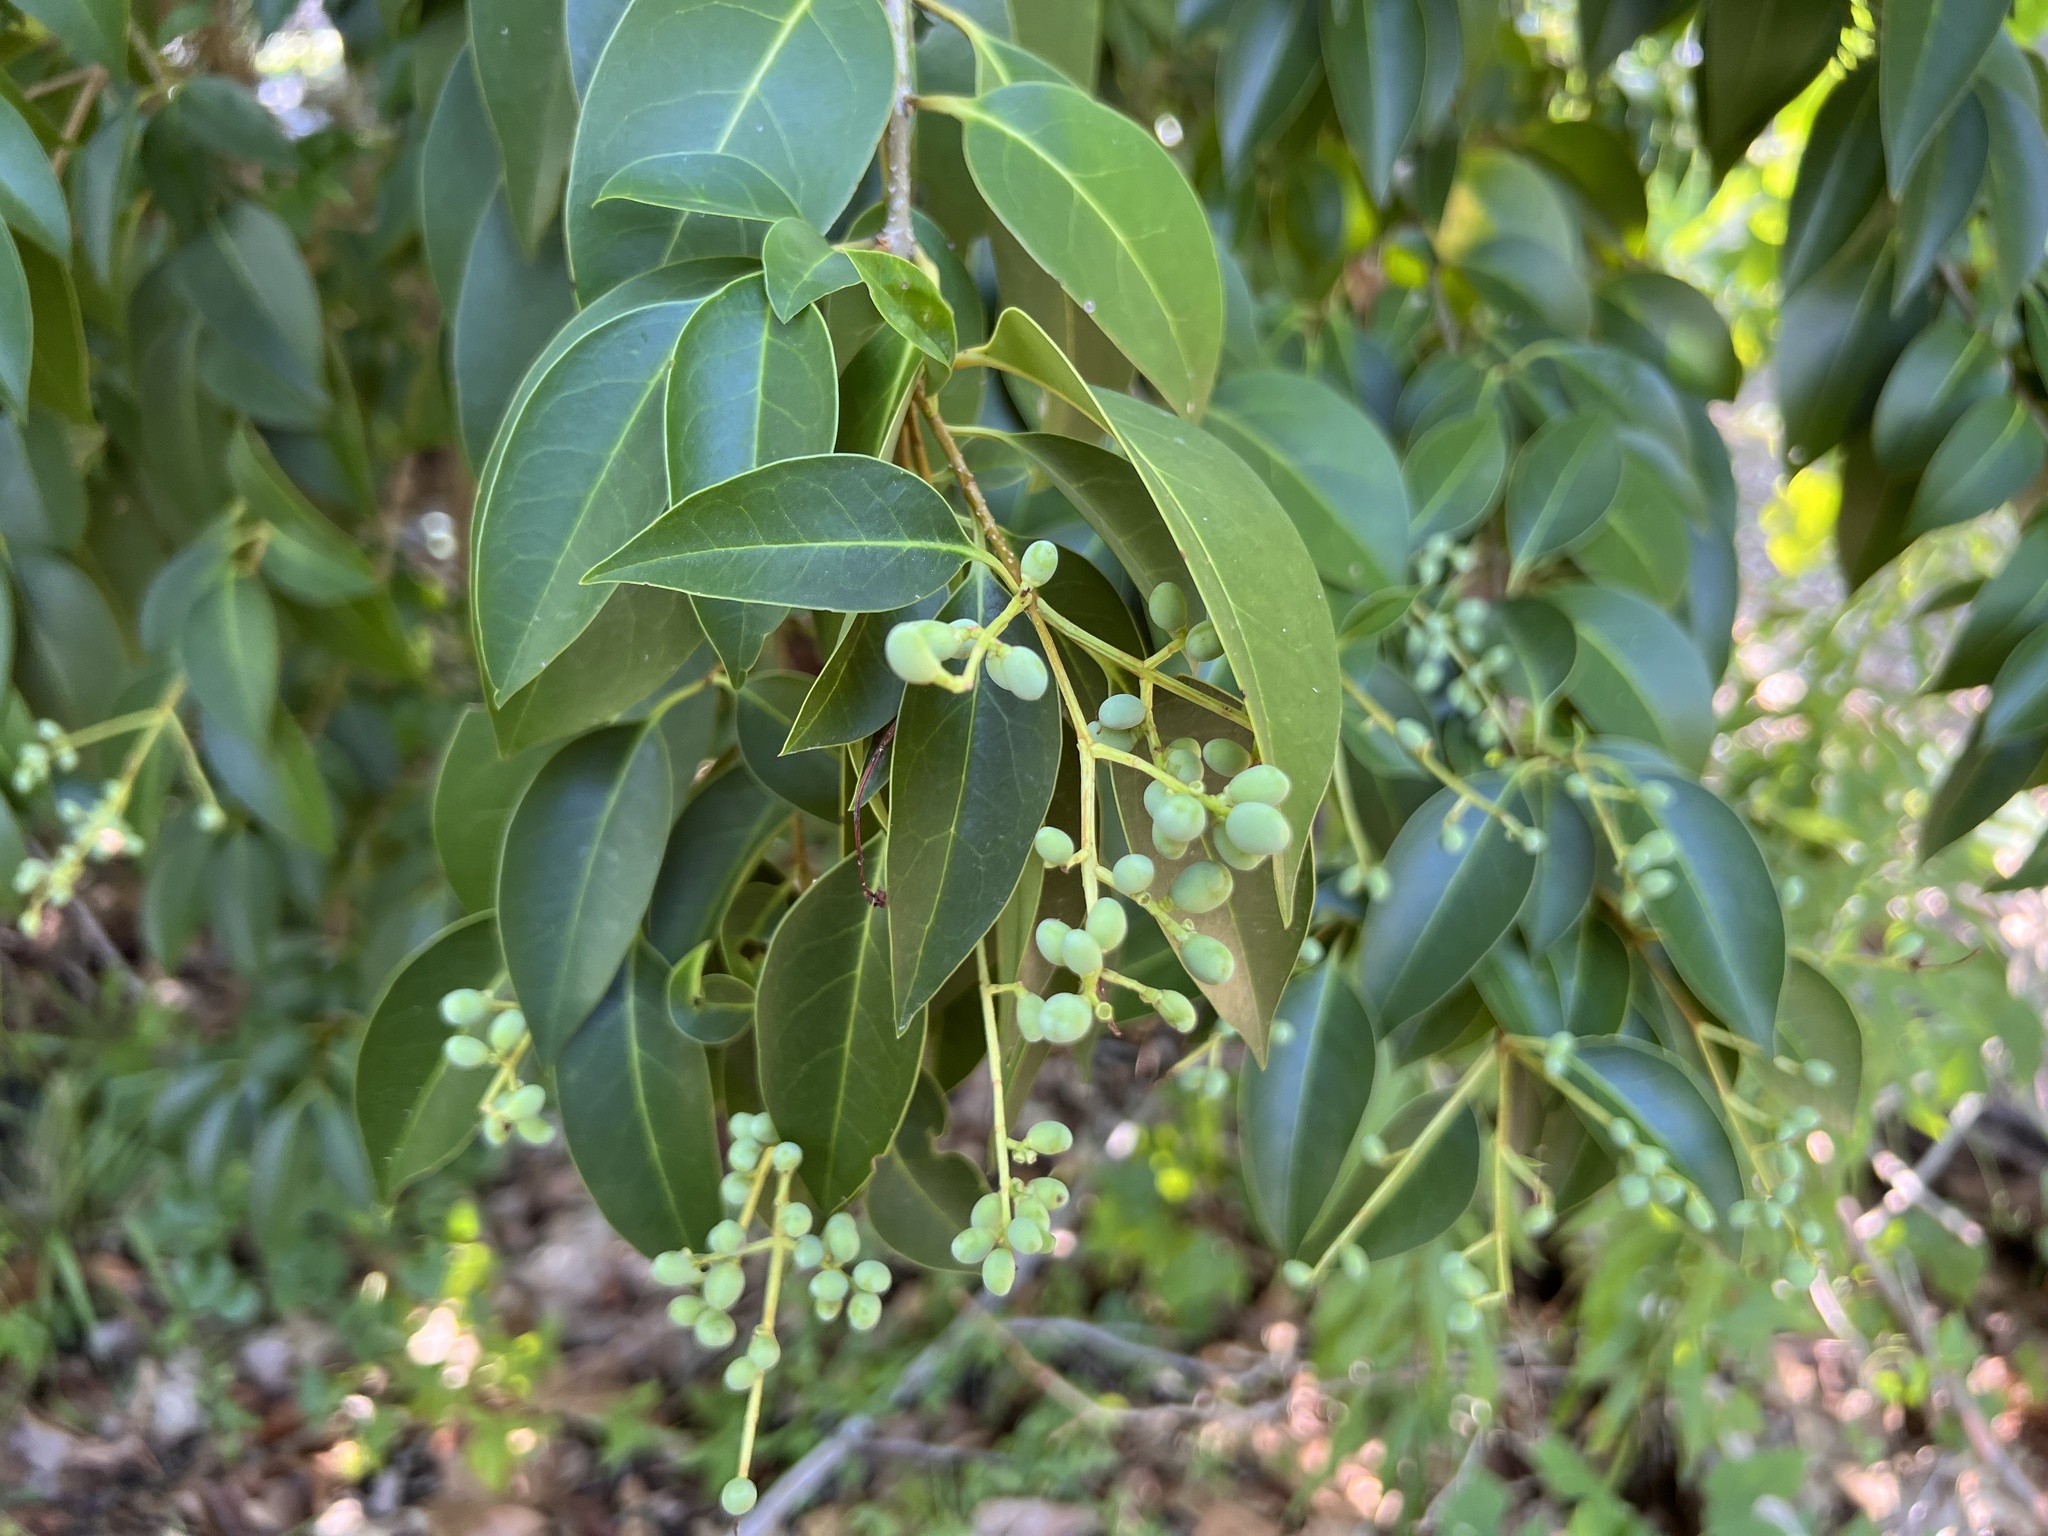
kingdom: Plantae
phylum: Tracheophyta
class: Magnoliopsida
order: Lamiales
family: Oleaceae
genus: Ligustrum
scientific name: Ligustrum lucidum
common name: Glossy privet
